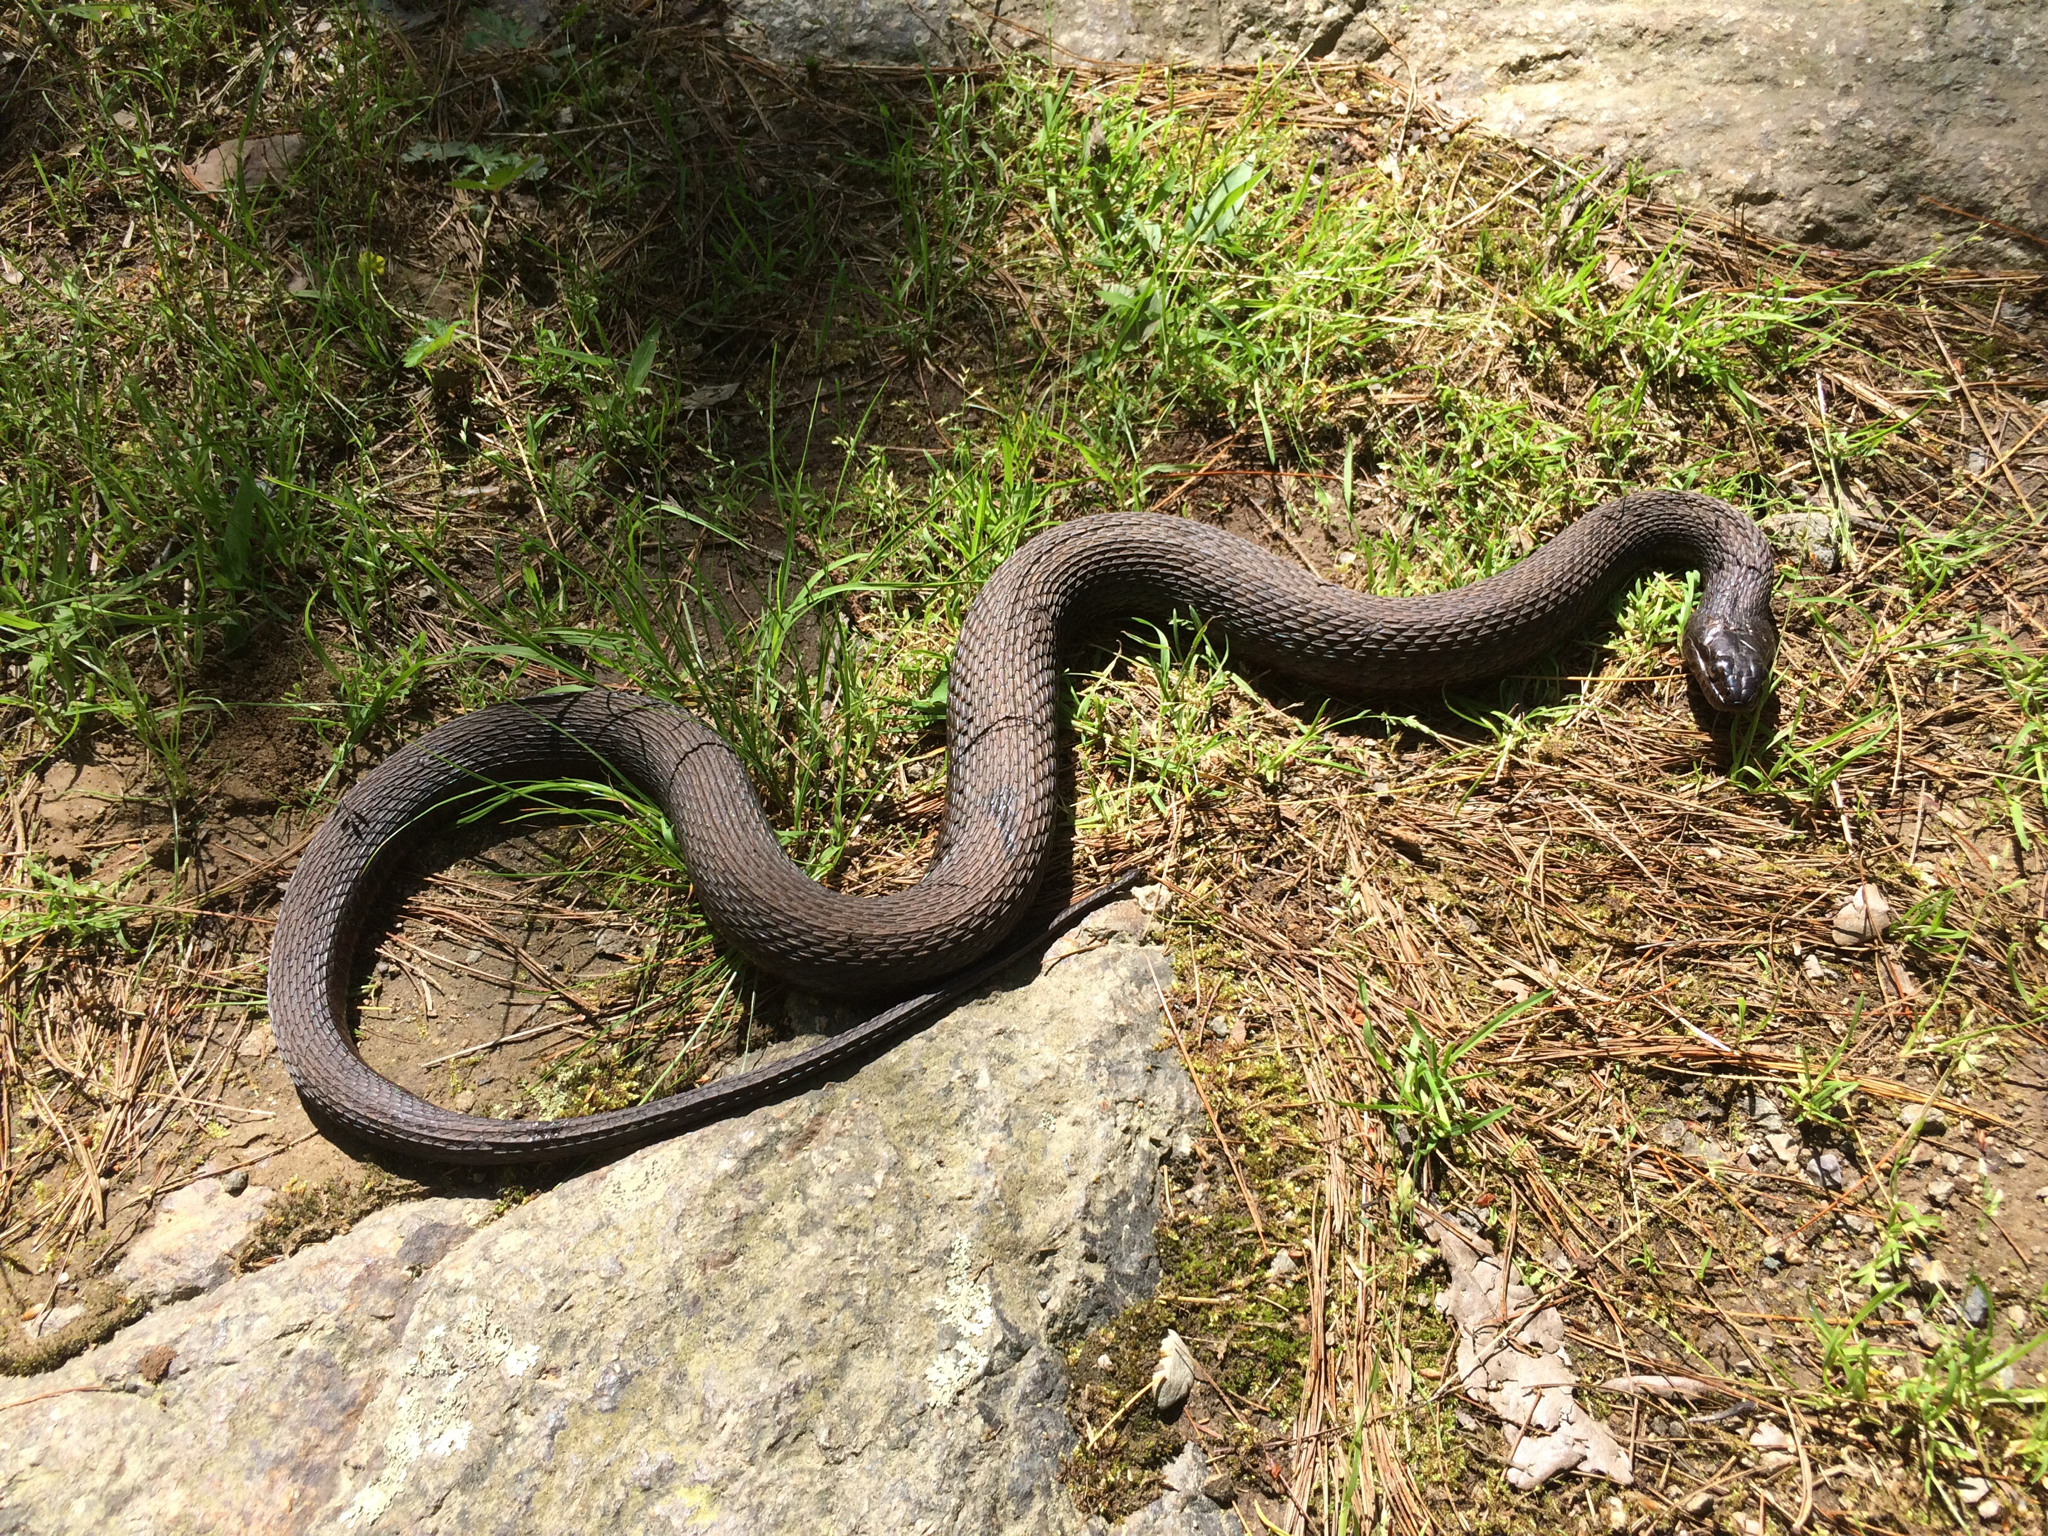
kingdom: Animalia
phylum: Chordata
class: Squamata
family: Colubridae
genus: Nerodia
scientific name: Nerodia sipedon
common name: Northern water snake
